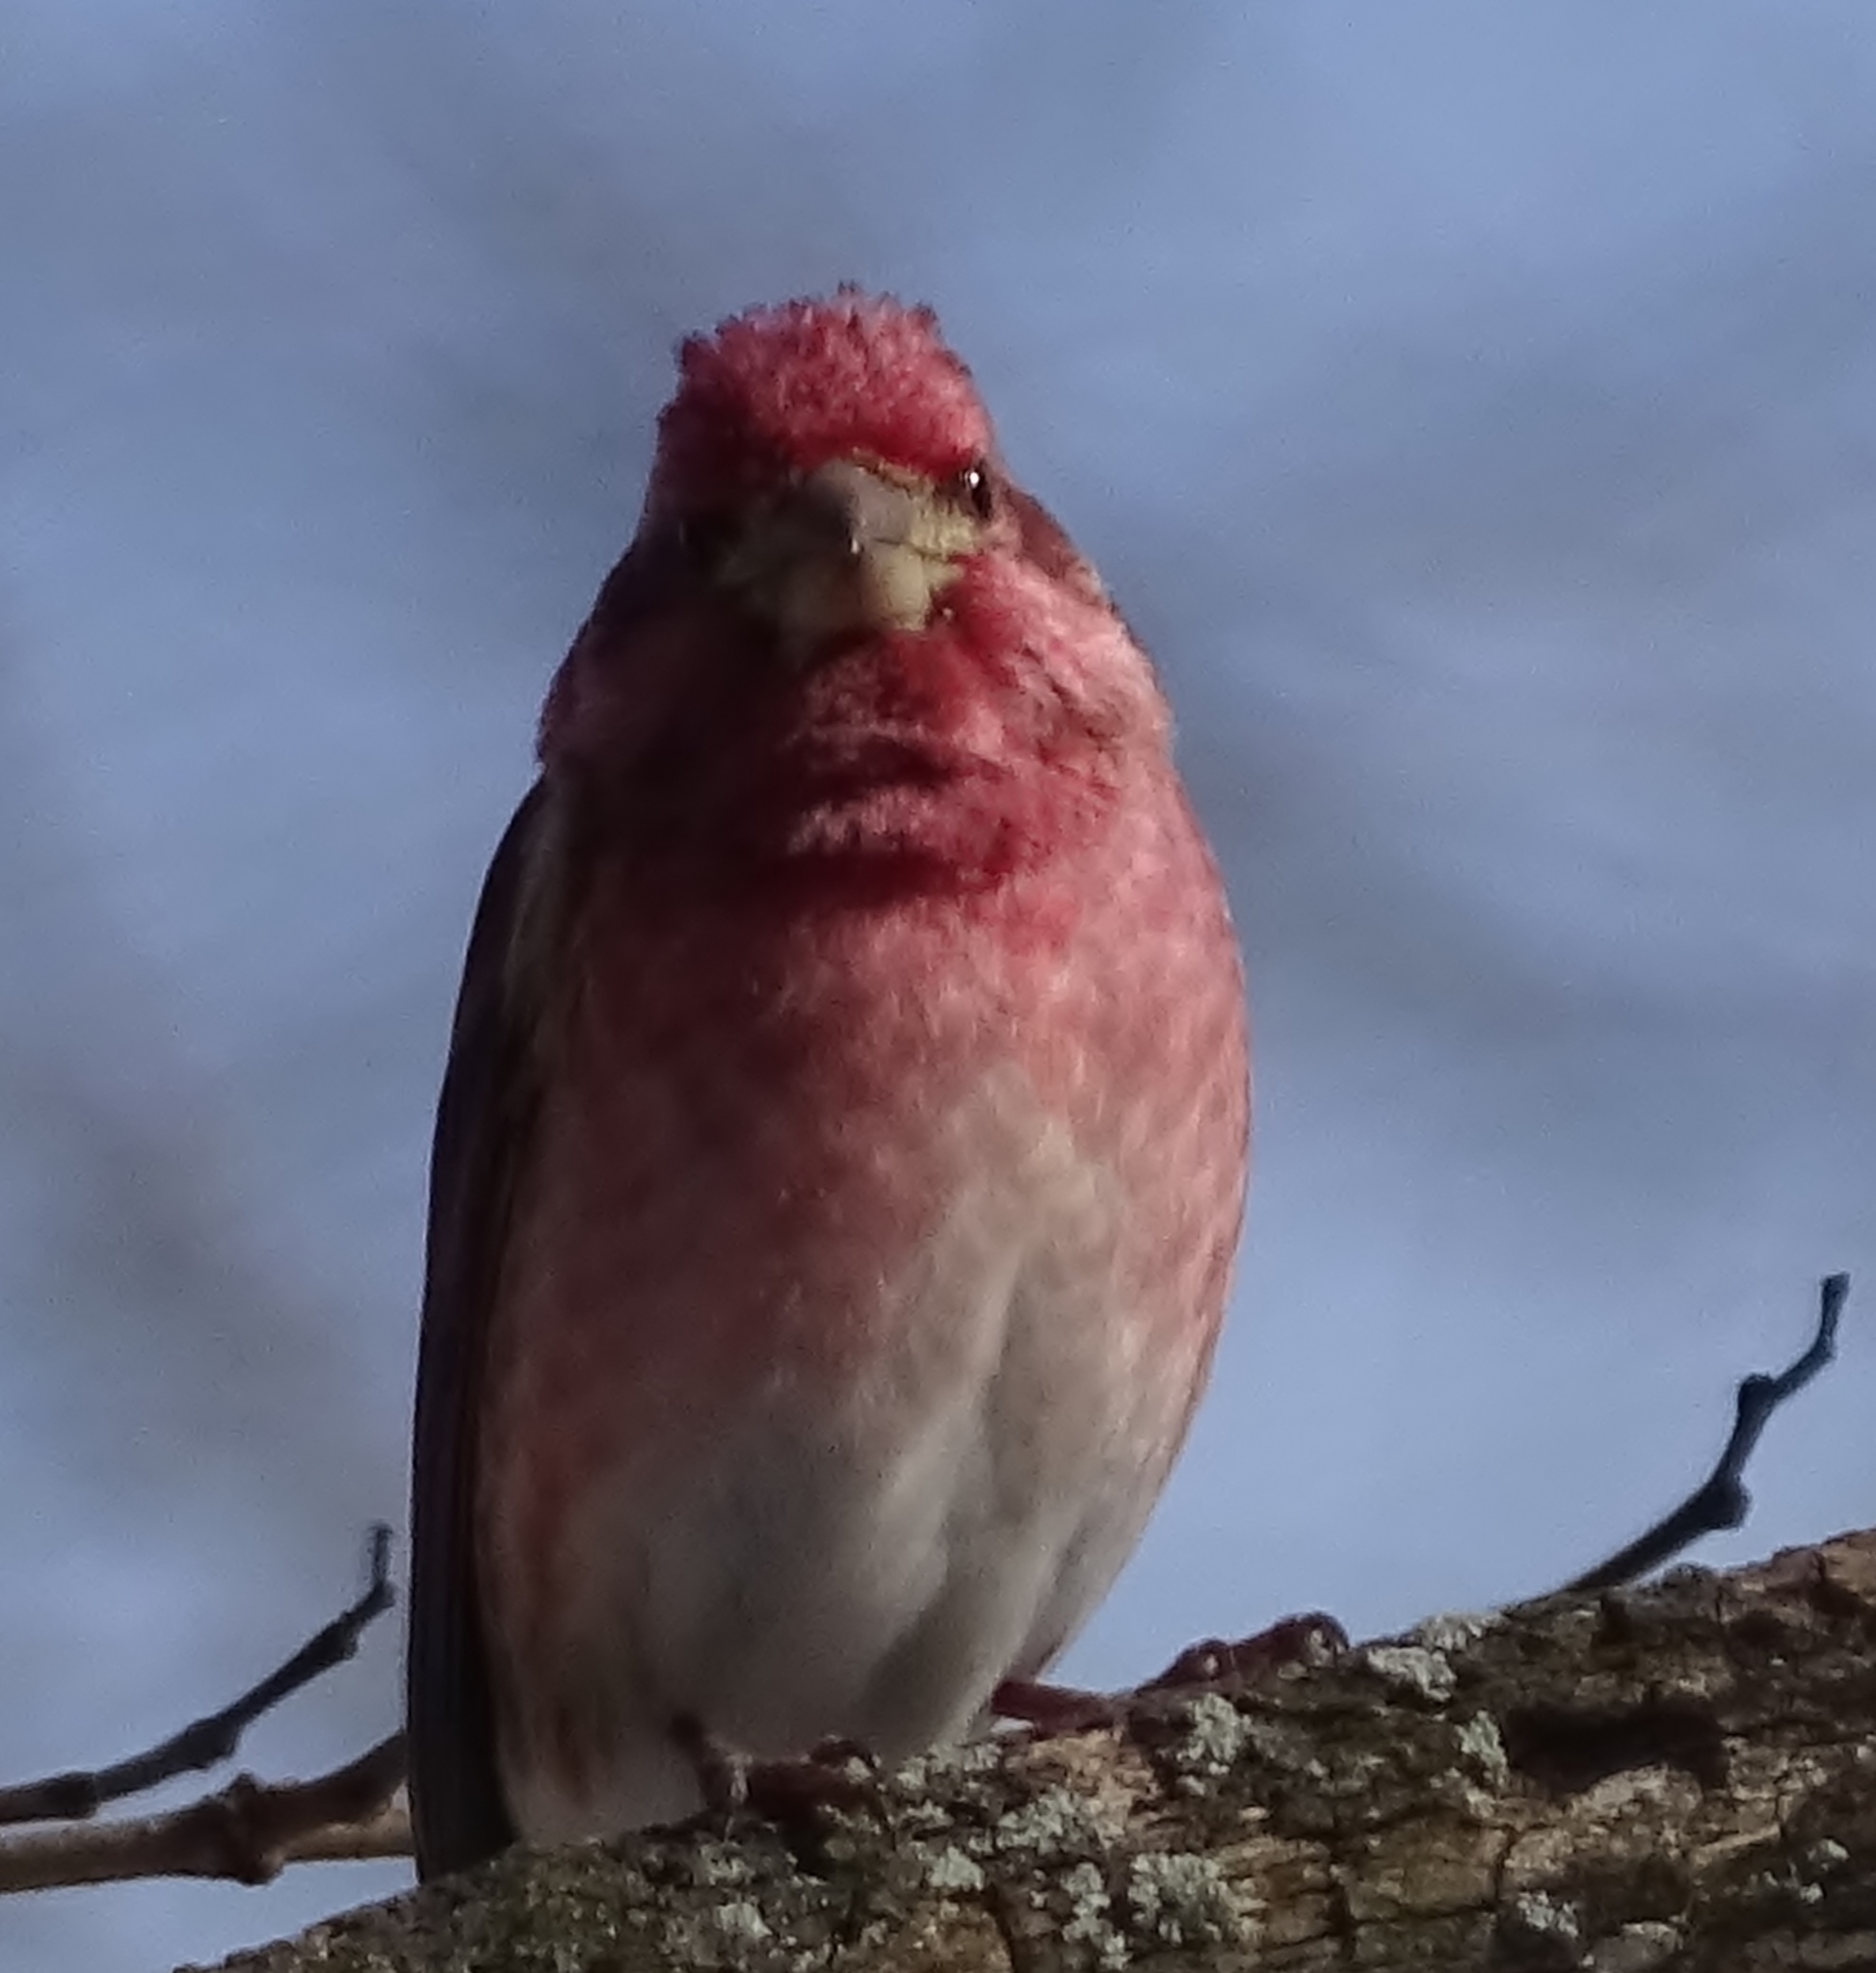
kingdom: Animalia
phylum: Chordata
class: Aves
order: Passeriformes
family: Fringillidae
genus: Haemorhous
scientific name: Haemorhous purpureus
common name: Purple finch
